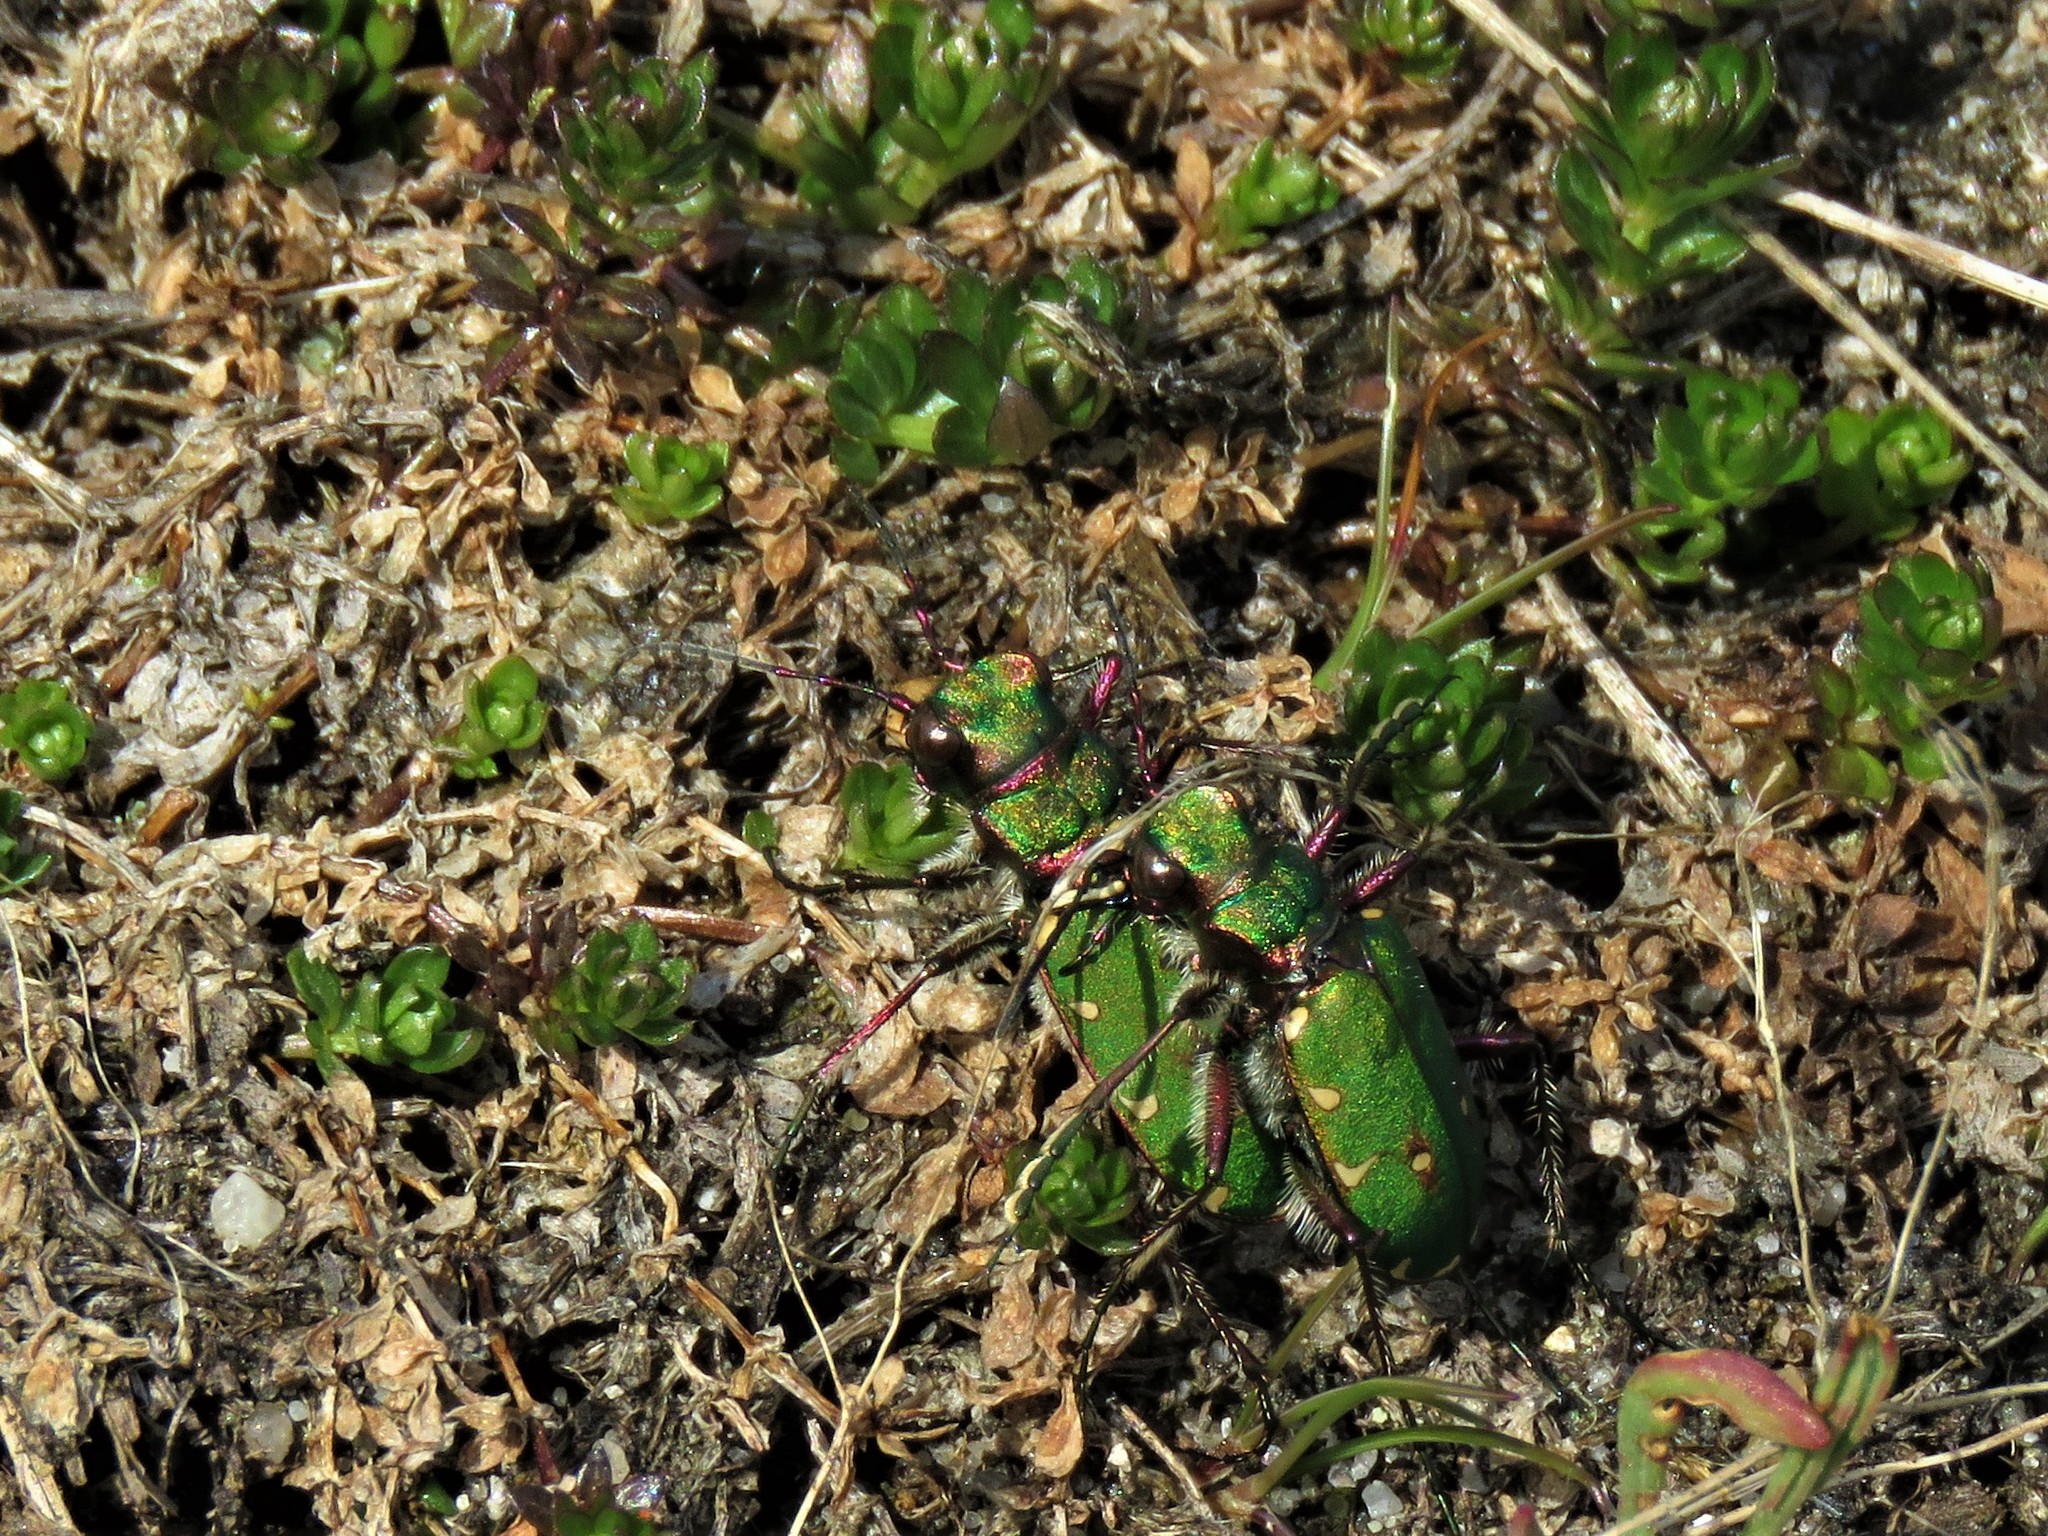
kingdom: Animalia
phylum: Arthropoda
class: Insecta
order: Coleoptera
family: Carabidae
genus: Cicindela
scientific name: Cicindela campestris
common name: Common tiger beetle
